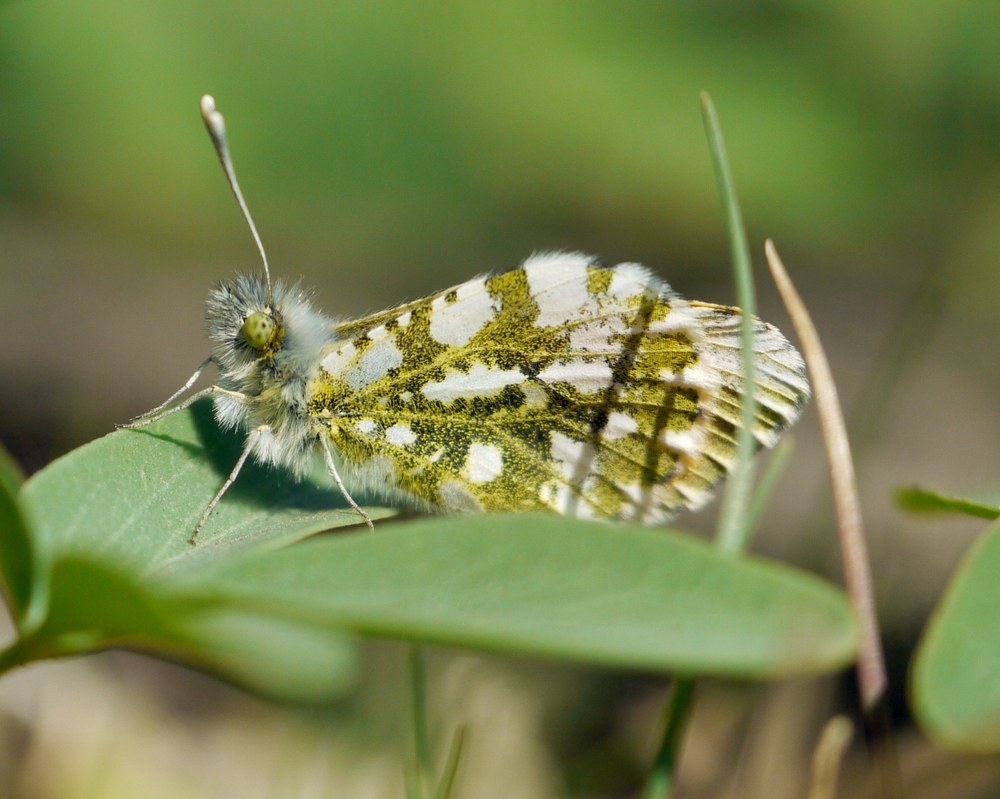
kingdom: Animalia
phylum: Arthropoda
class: Insecta
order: Lepidoptera
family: Pieridae
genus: Anthocharis
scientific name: Anthocharis cardamines
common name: Orange-tip
